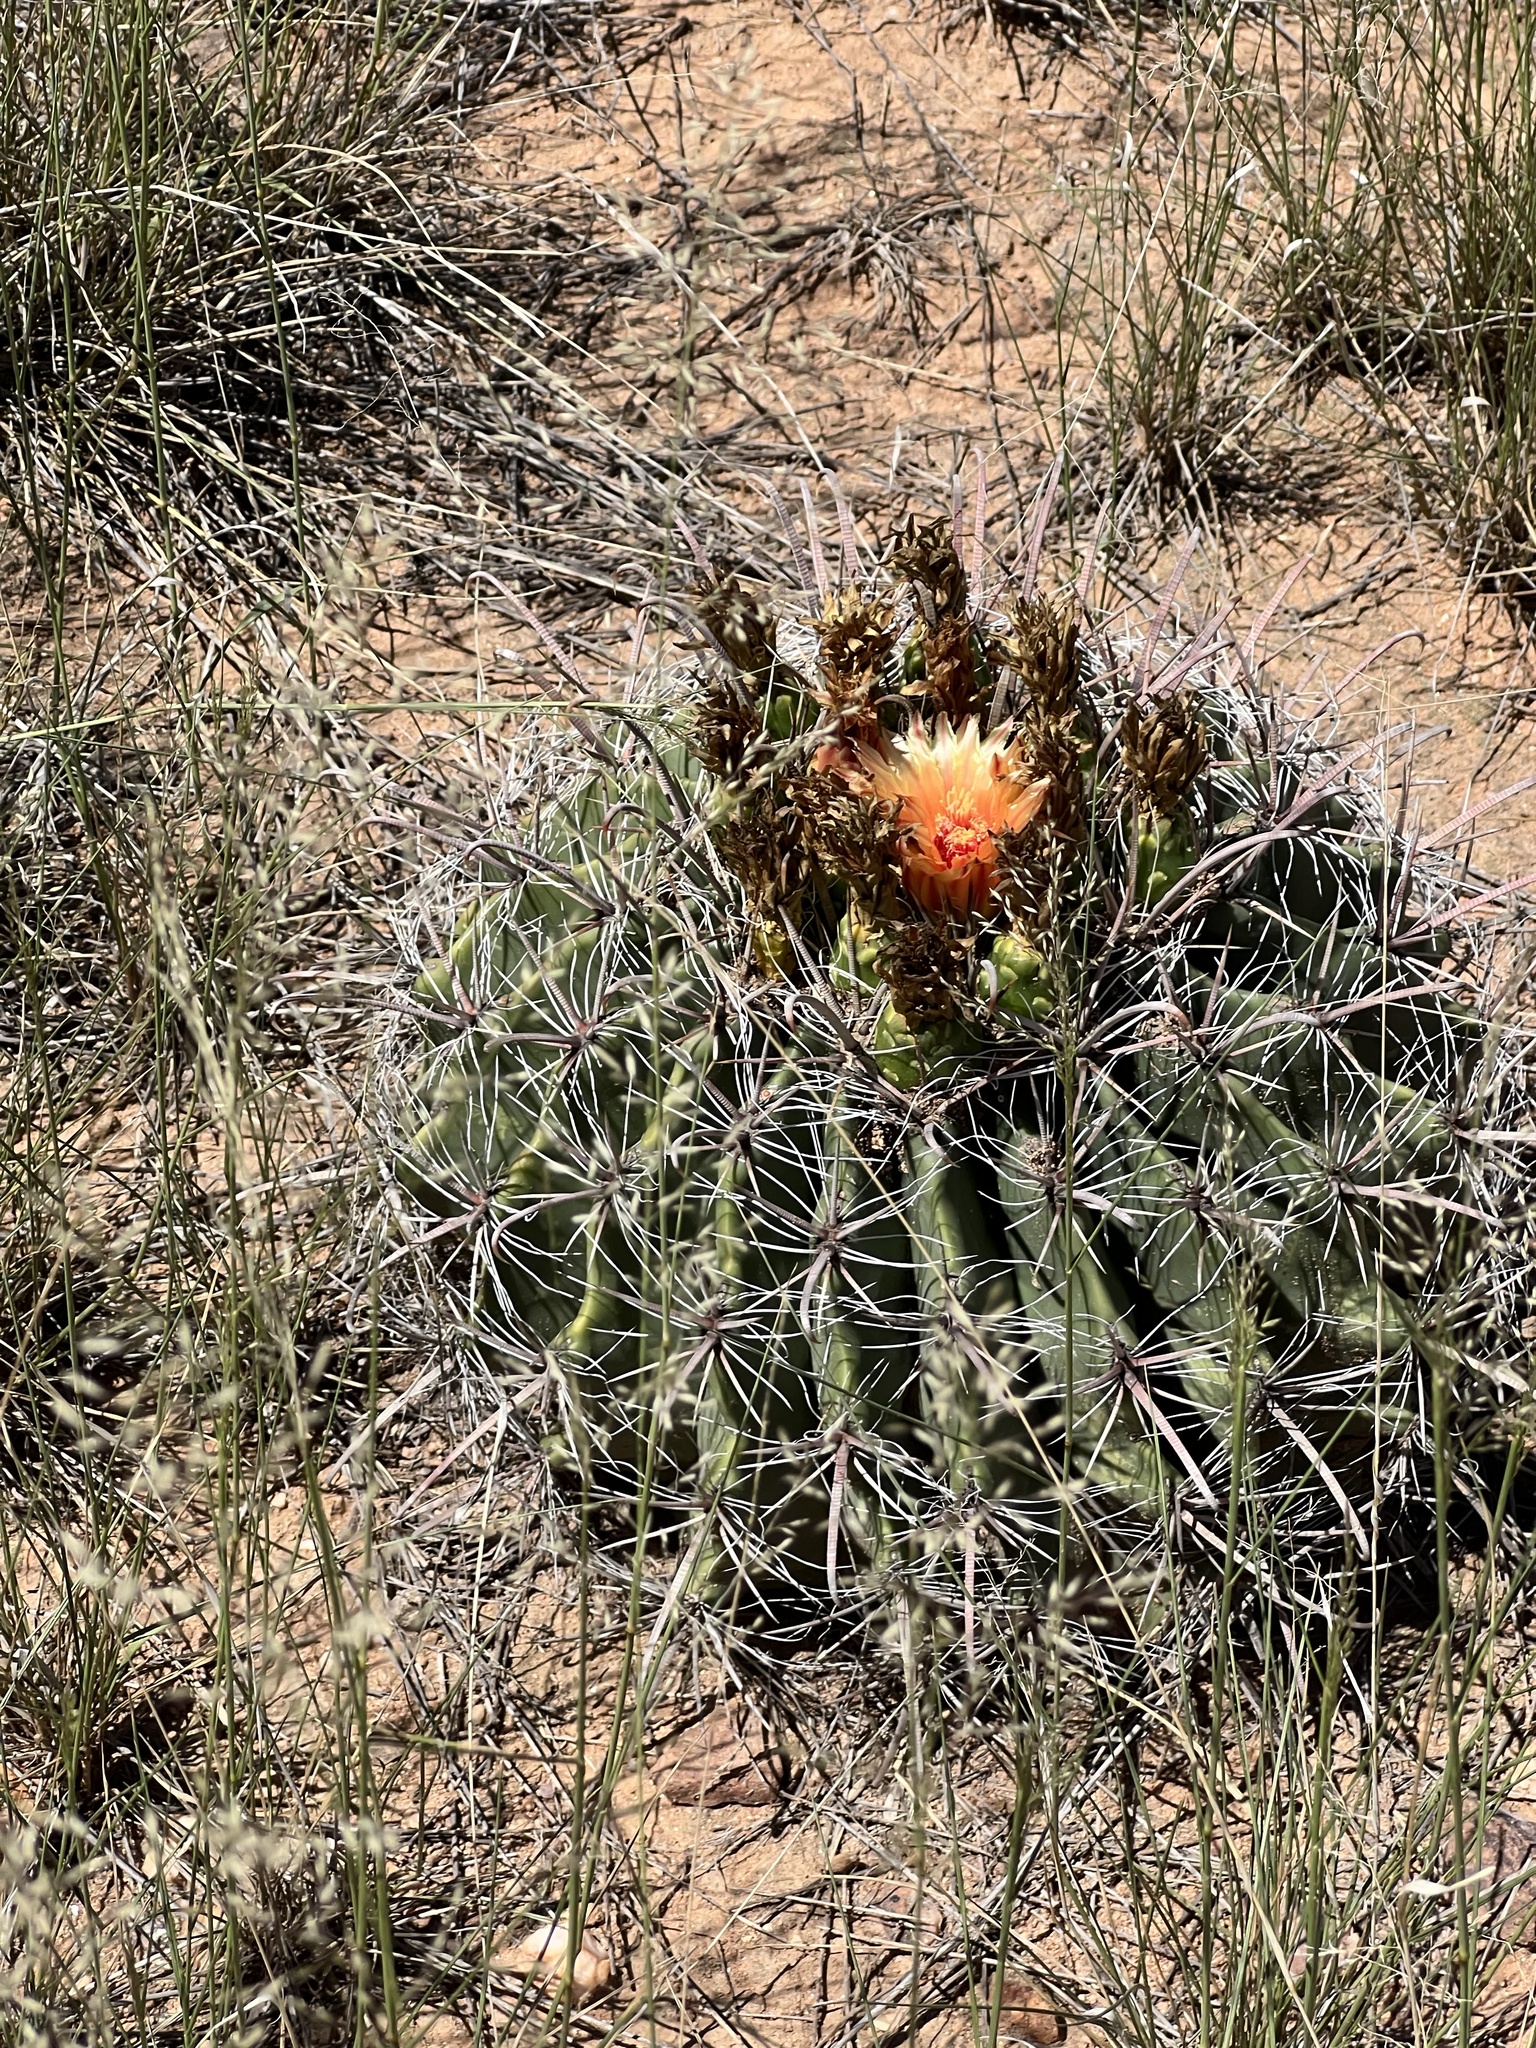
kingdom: Plantae
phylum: Tracheophyta
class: Magnoliopsida
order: Caryophyllales
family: Cactaceae
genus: Ferocactus
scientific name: Ferocactus wislizeni
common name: Candy barrel cactus
